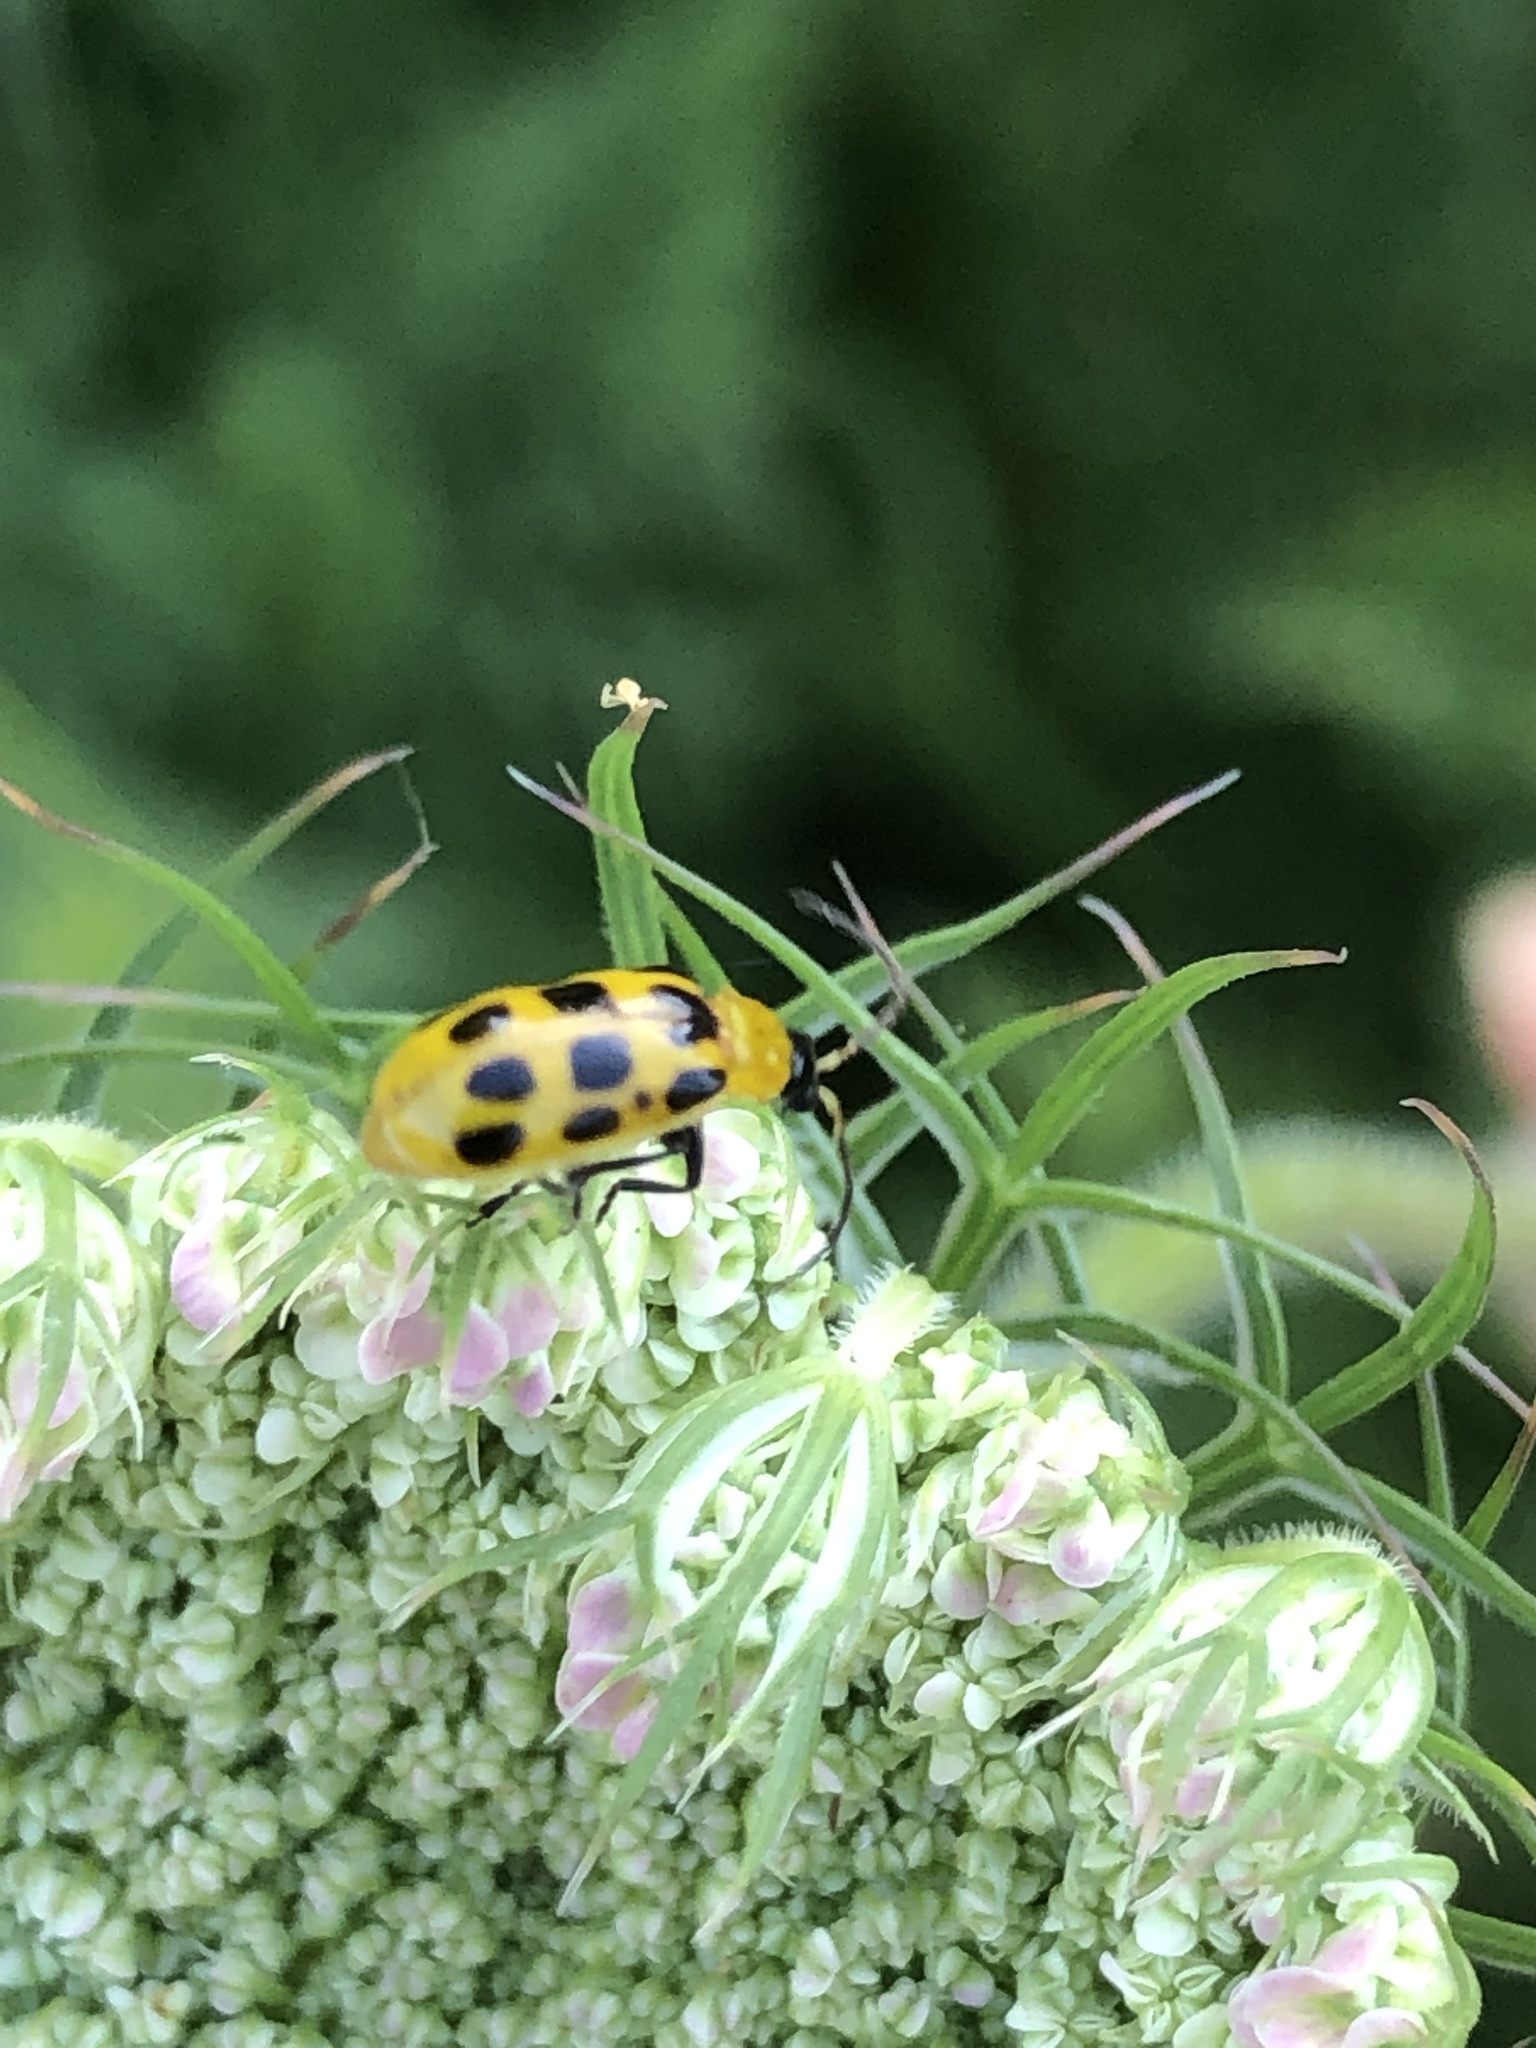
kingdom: Animalia
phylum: Arthropoda
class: Insecta
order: Coleoptera
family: Chrysomelidae
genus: Diabrotica
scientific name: Diabrotica undecimpunctata
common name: Spotted cucumber beetle
